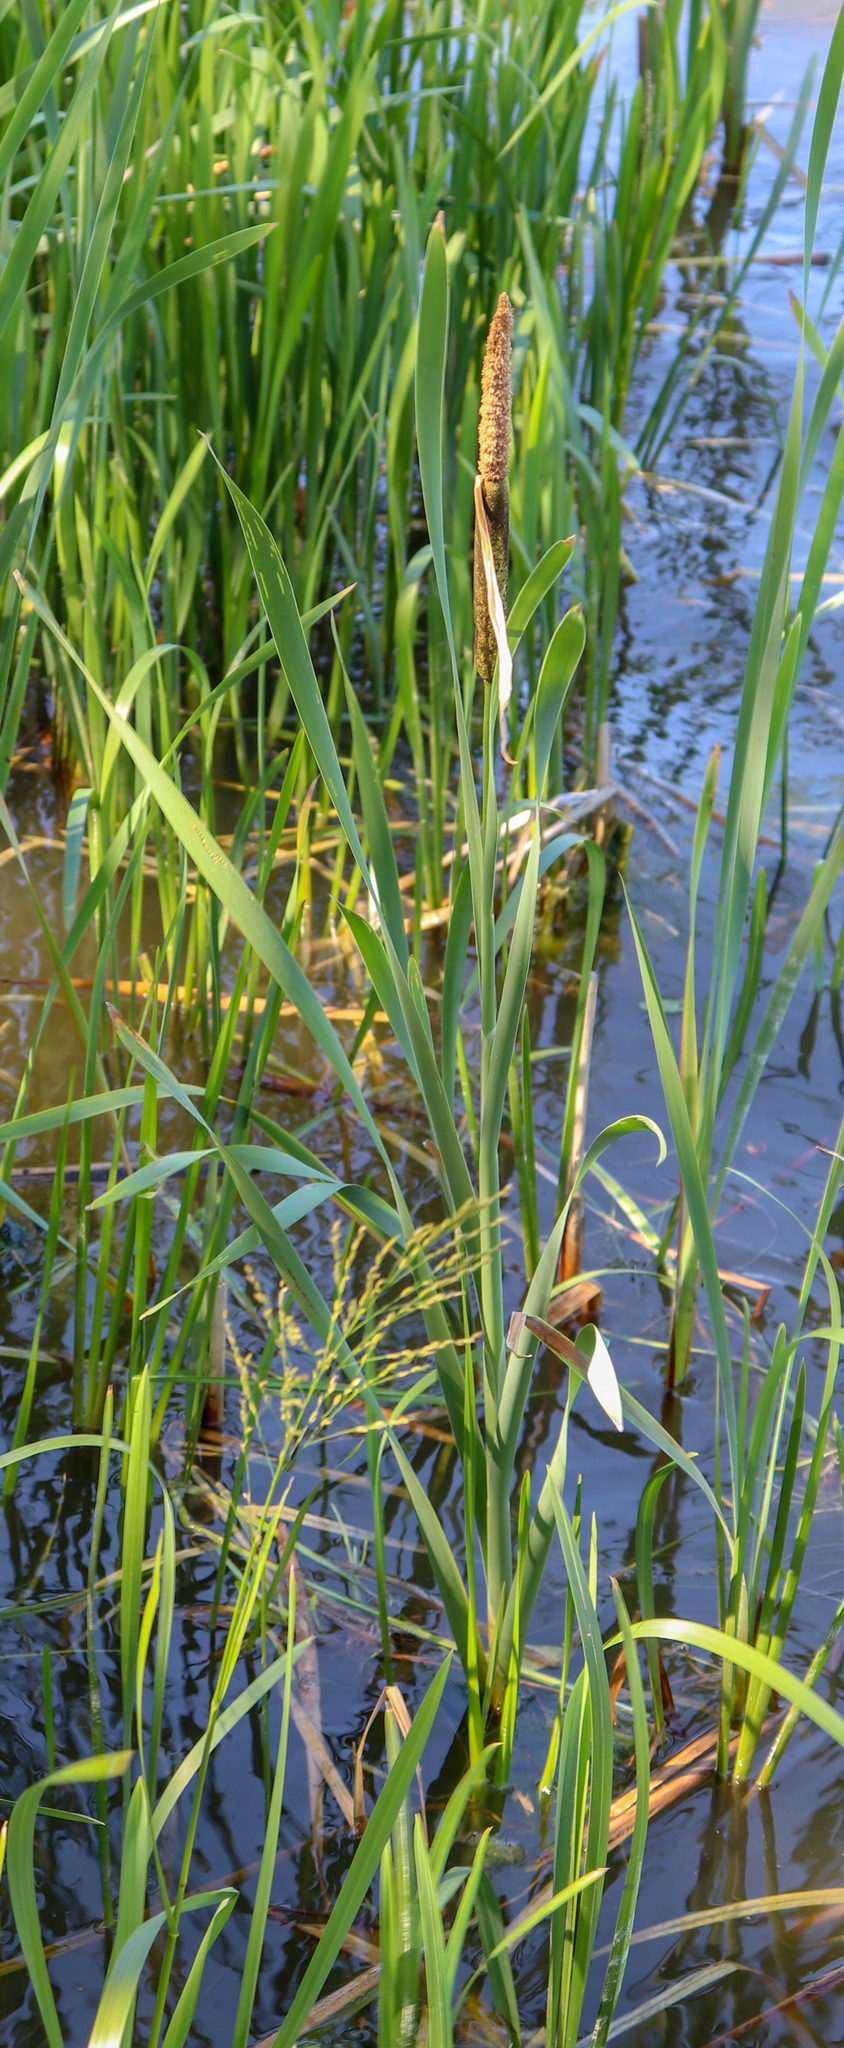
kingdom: Plantae
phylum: Tracheophyta
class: Liliopsida
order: Poales
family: Typhaceae
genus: Typha
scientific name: Typha latifolia
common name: Broadleaf cattail
